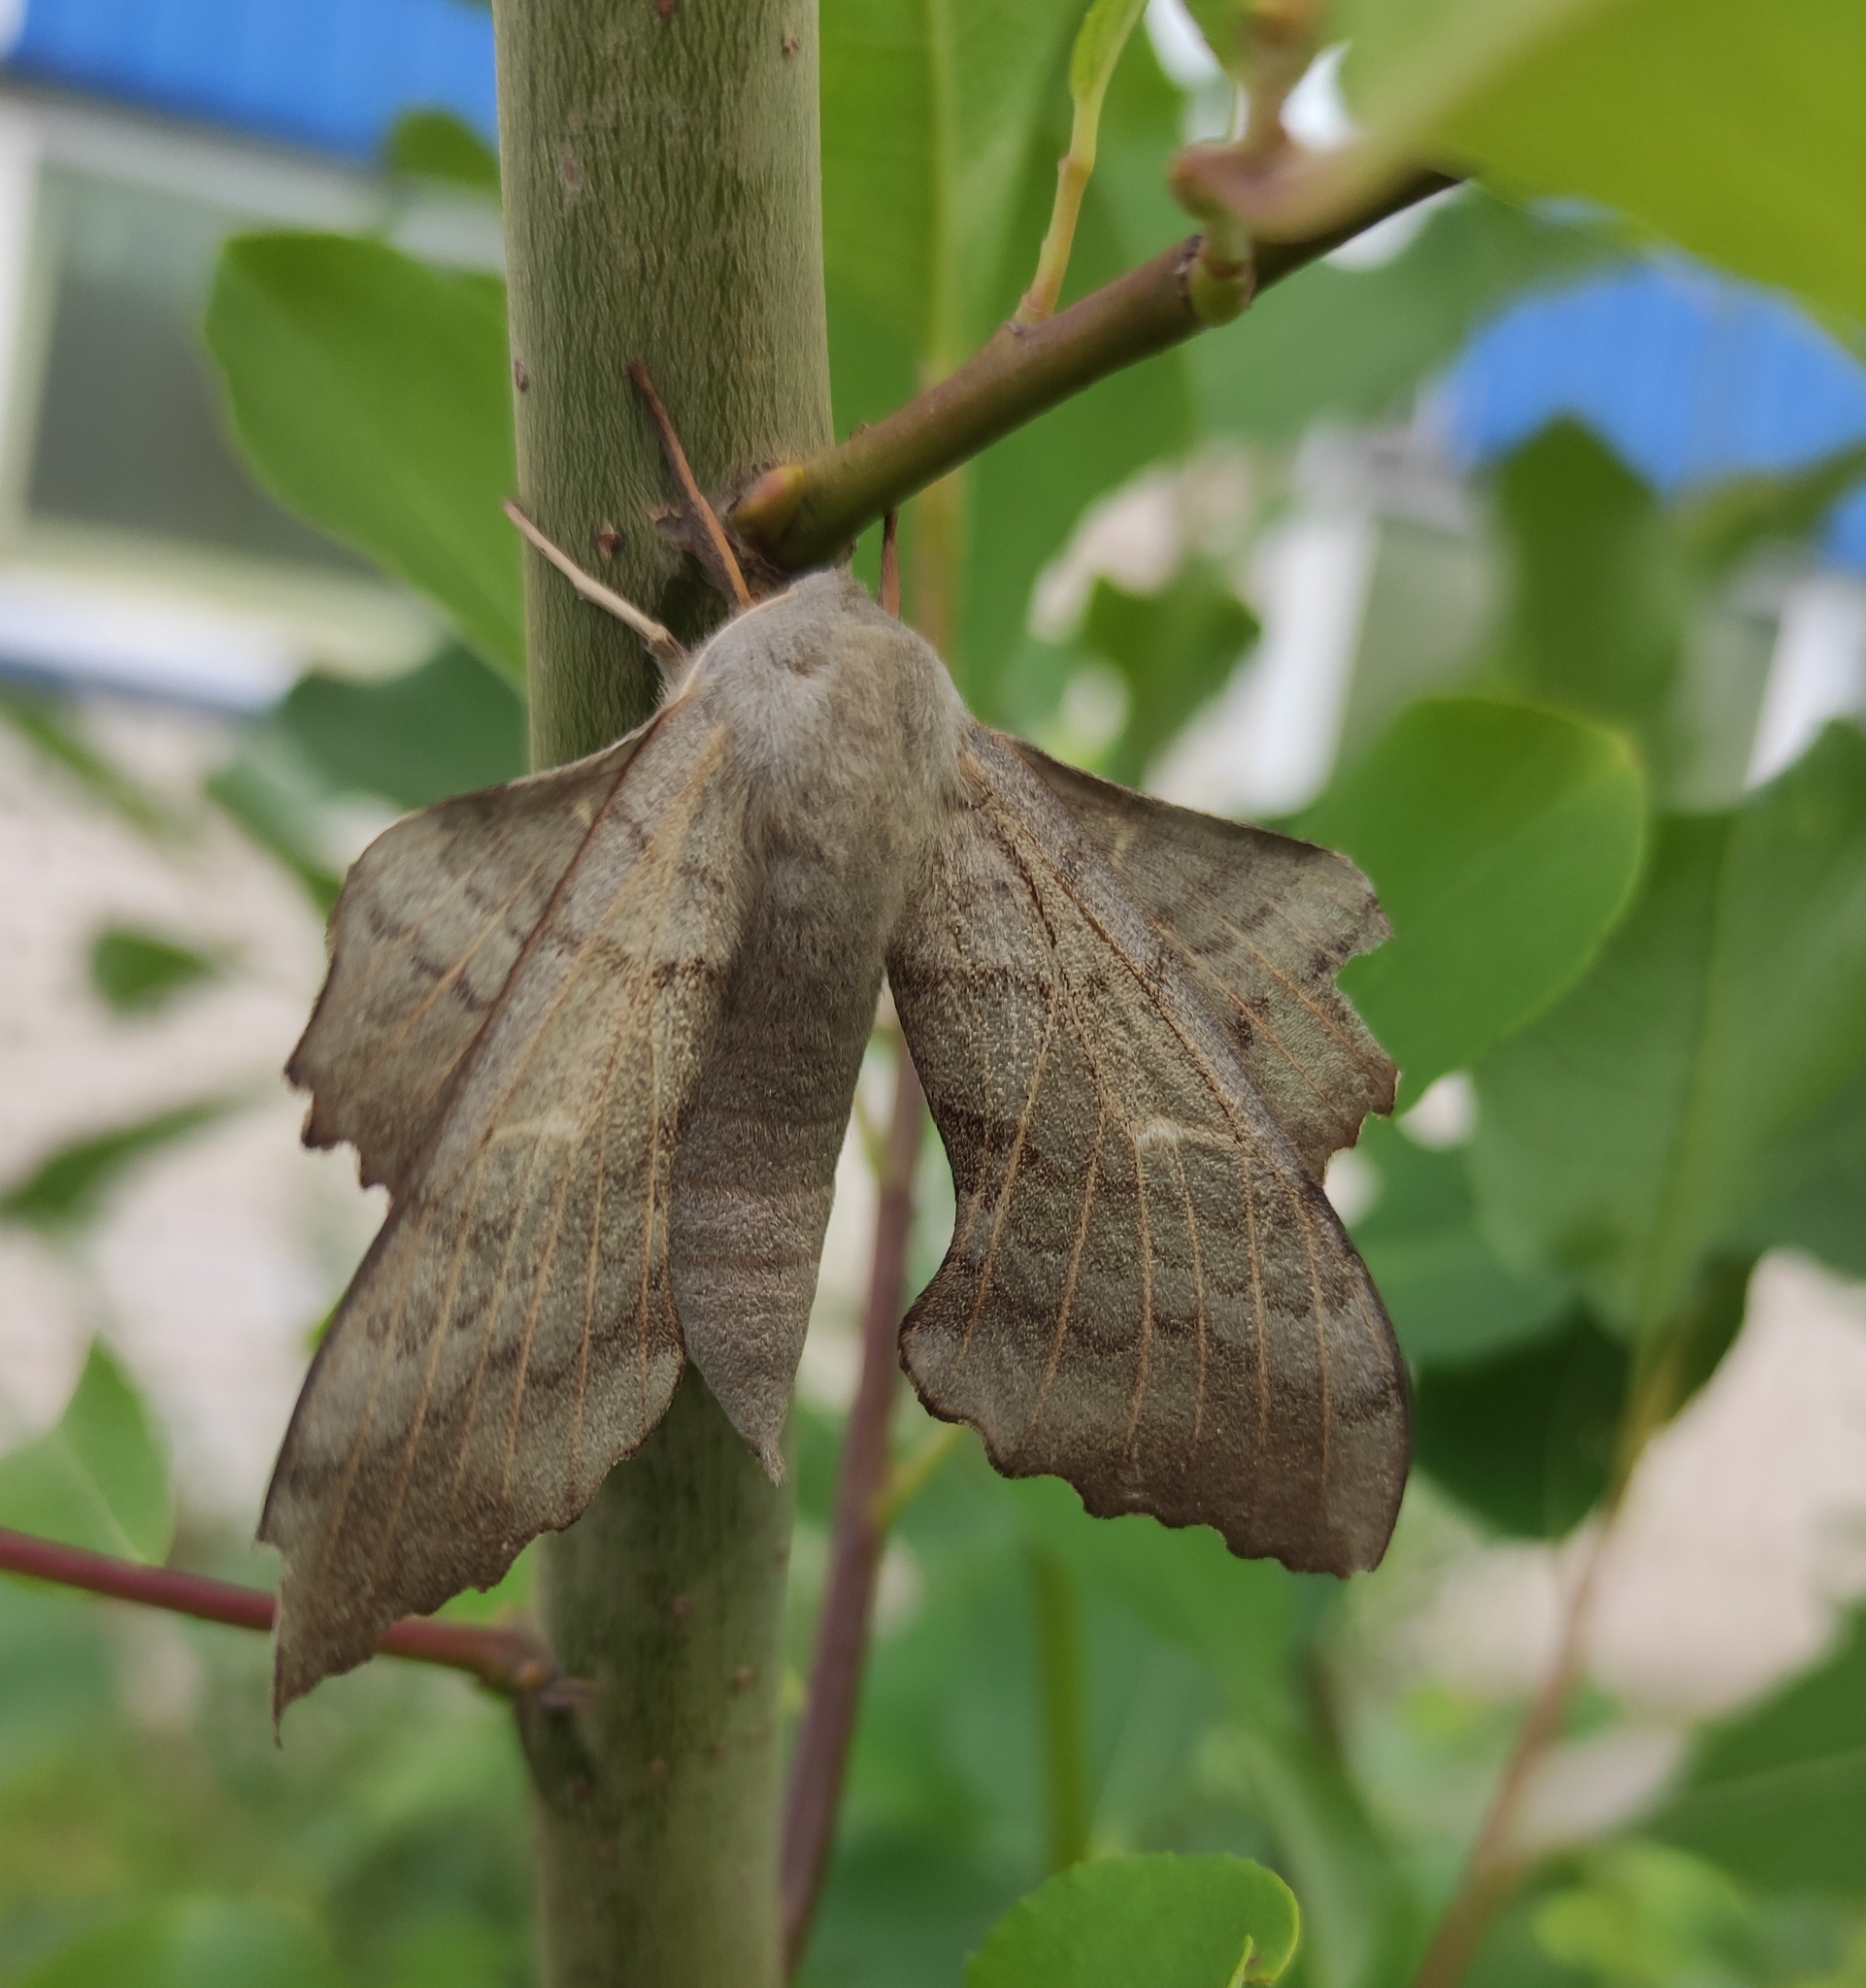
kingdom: Animalia
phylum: Arthropoda
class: Insecta
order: Lepidoptera
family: Sphingidae
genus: Laothoe
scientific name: Laothoe populi
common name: Poplar hawk-moth
